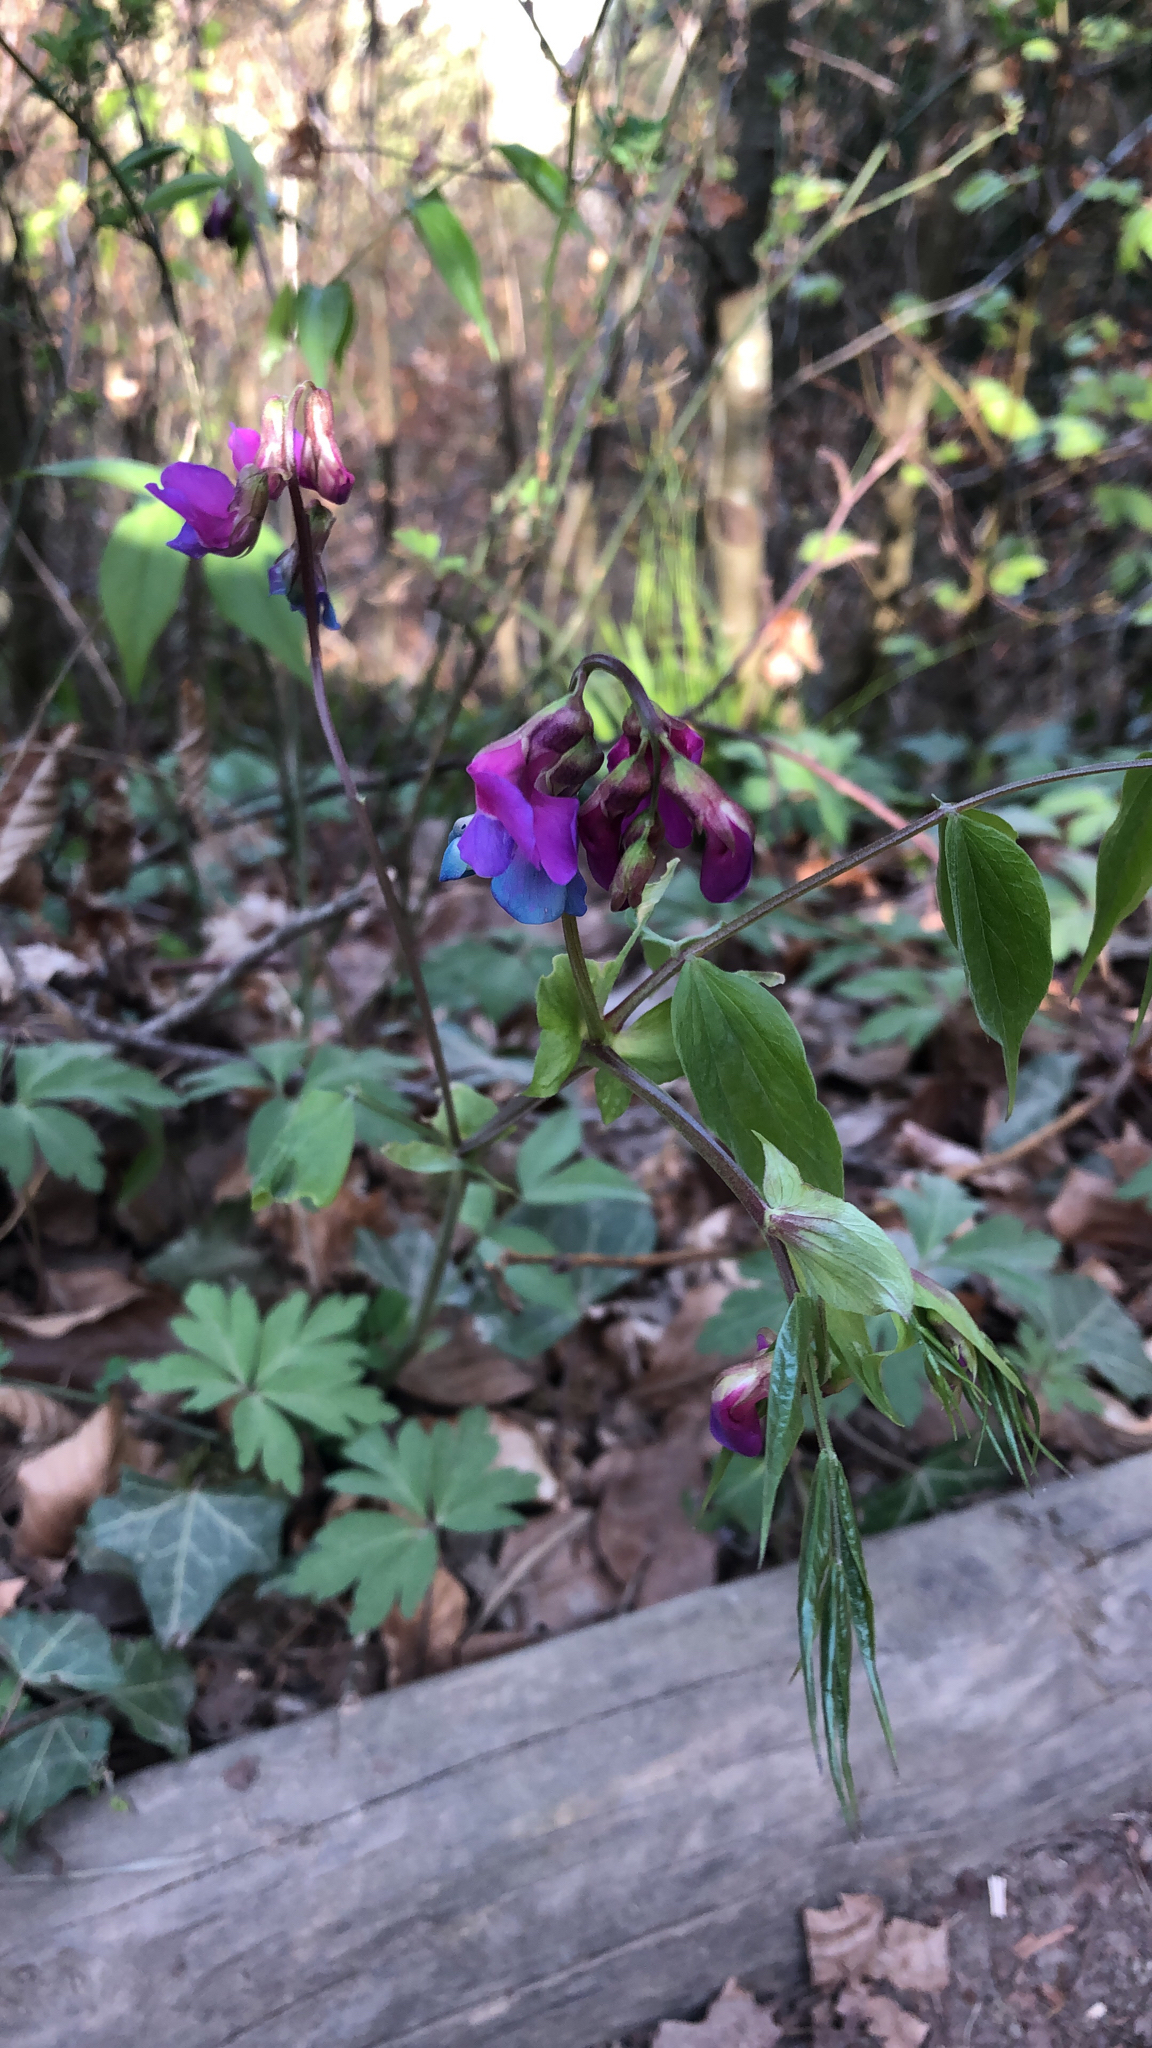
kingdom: Plantae
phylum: Tracheophyta
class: Magnoliopsida
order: Fabales
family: Fabaceae
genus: Lathyrus
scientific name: Lathyrus vernus
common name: Spring pea
